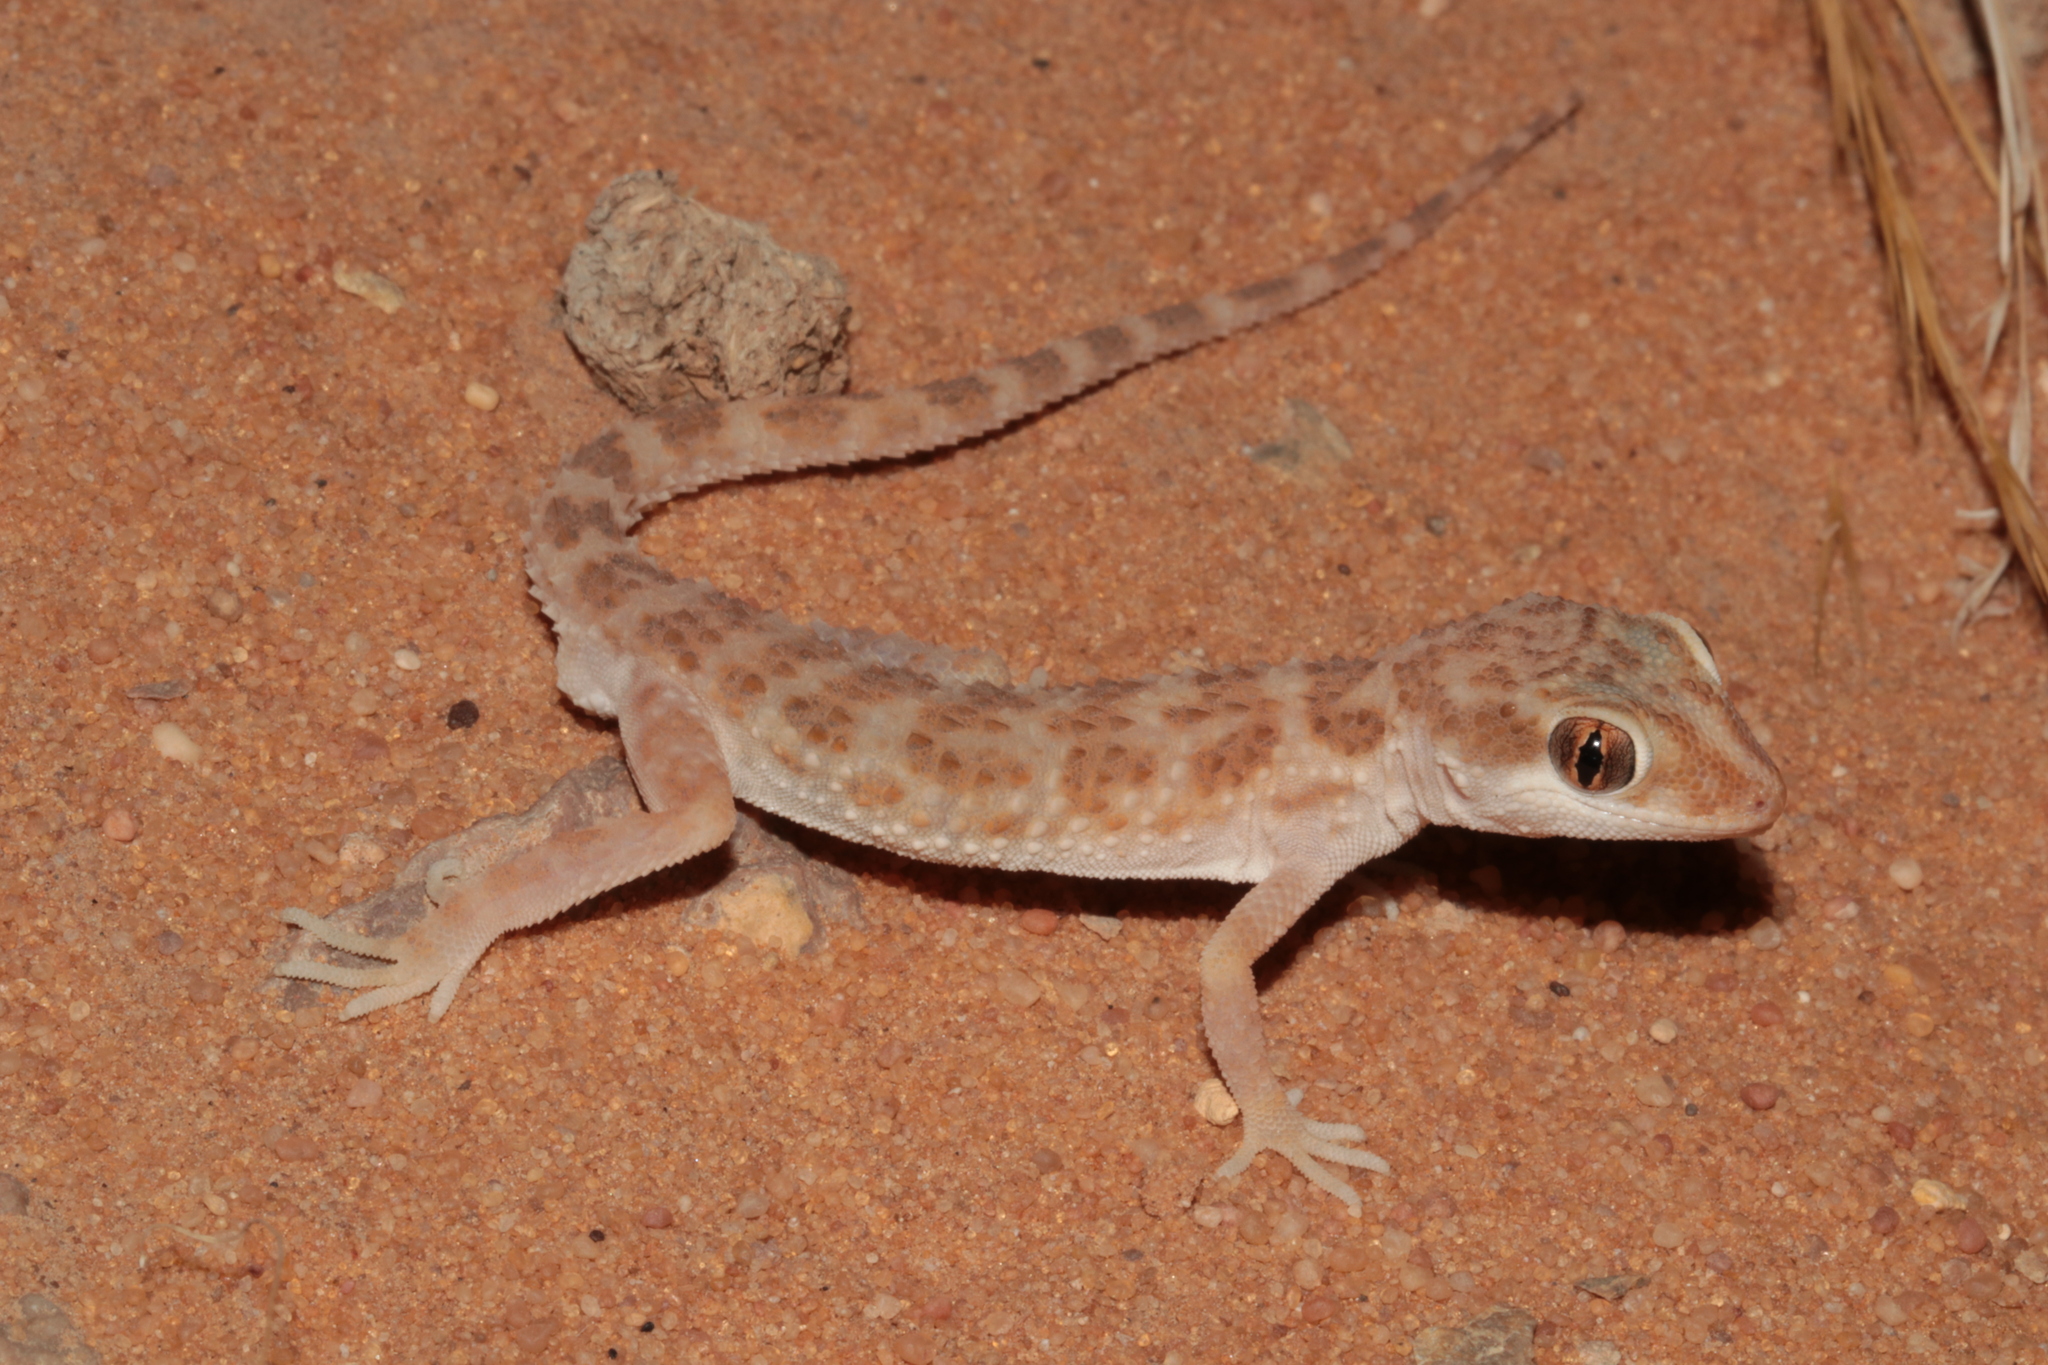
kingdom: Animalia
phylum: Chordata
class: Squamata
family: Gekkonidae
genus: Bunopus
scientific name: Bunopus tuberculatus
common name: Southern tuberculated gecko
